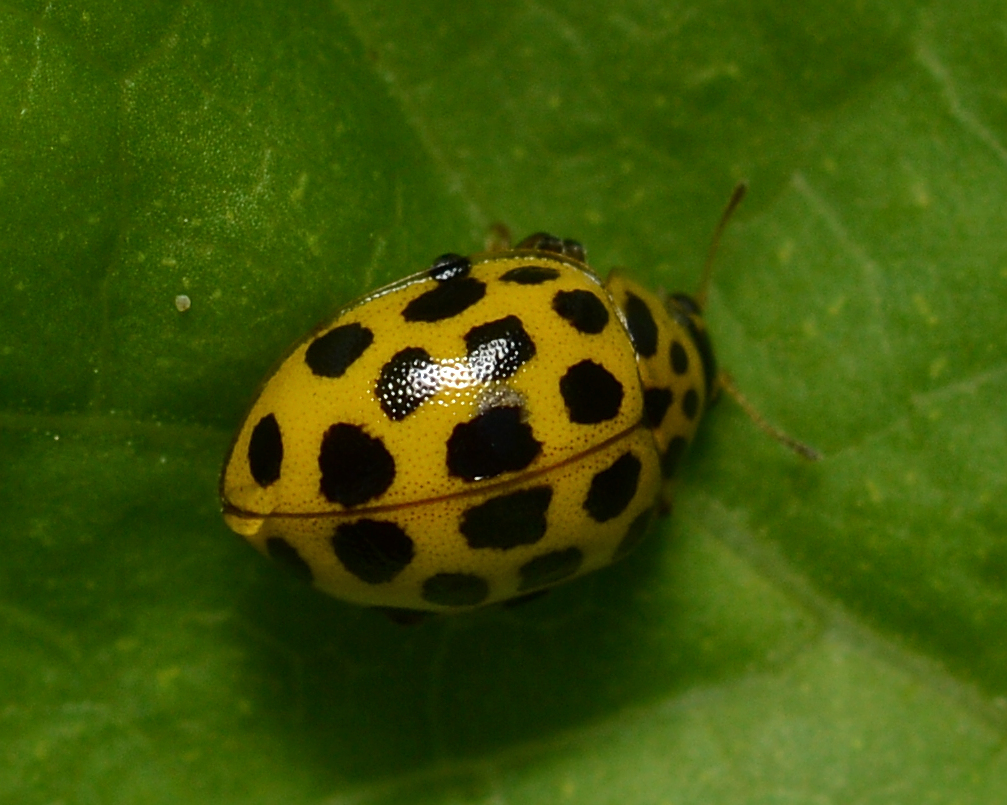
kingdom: Animalia
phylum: Arthropoda
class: Insecta
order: Coleoptera
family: Coccinellidae
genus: Psyllobora
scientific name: Psyllobora vigintiduopunctata
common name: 22-spot ladybird
